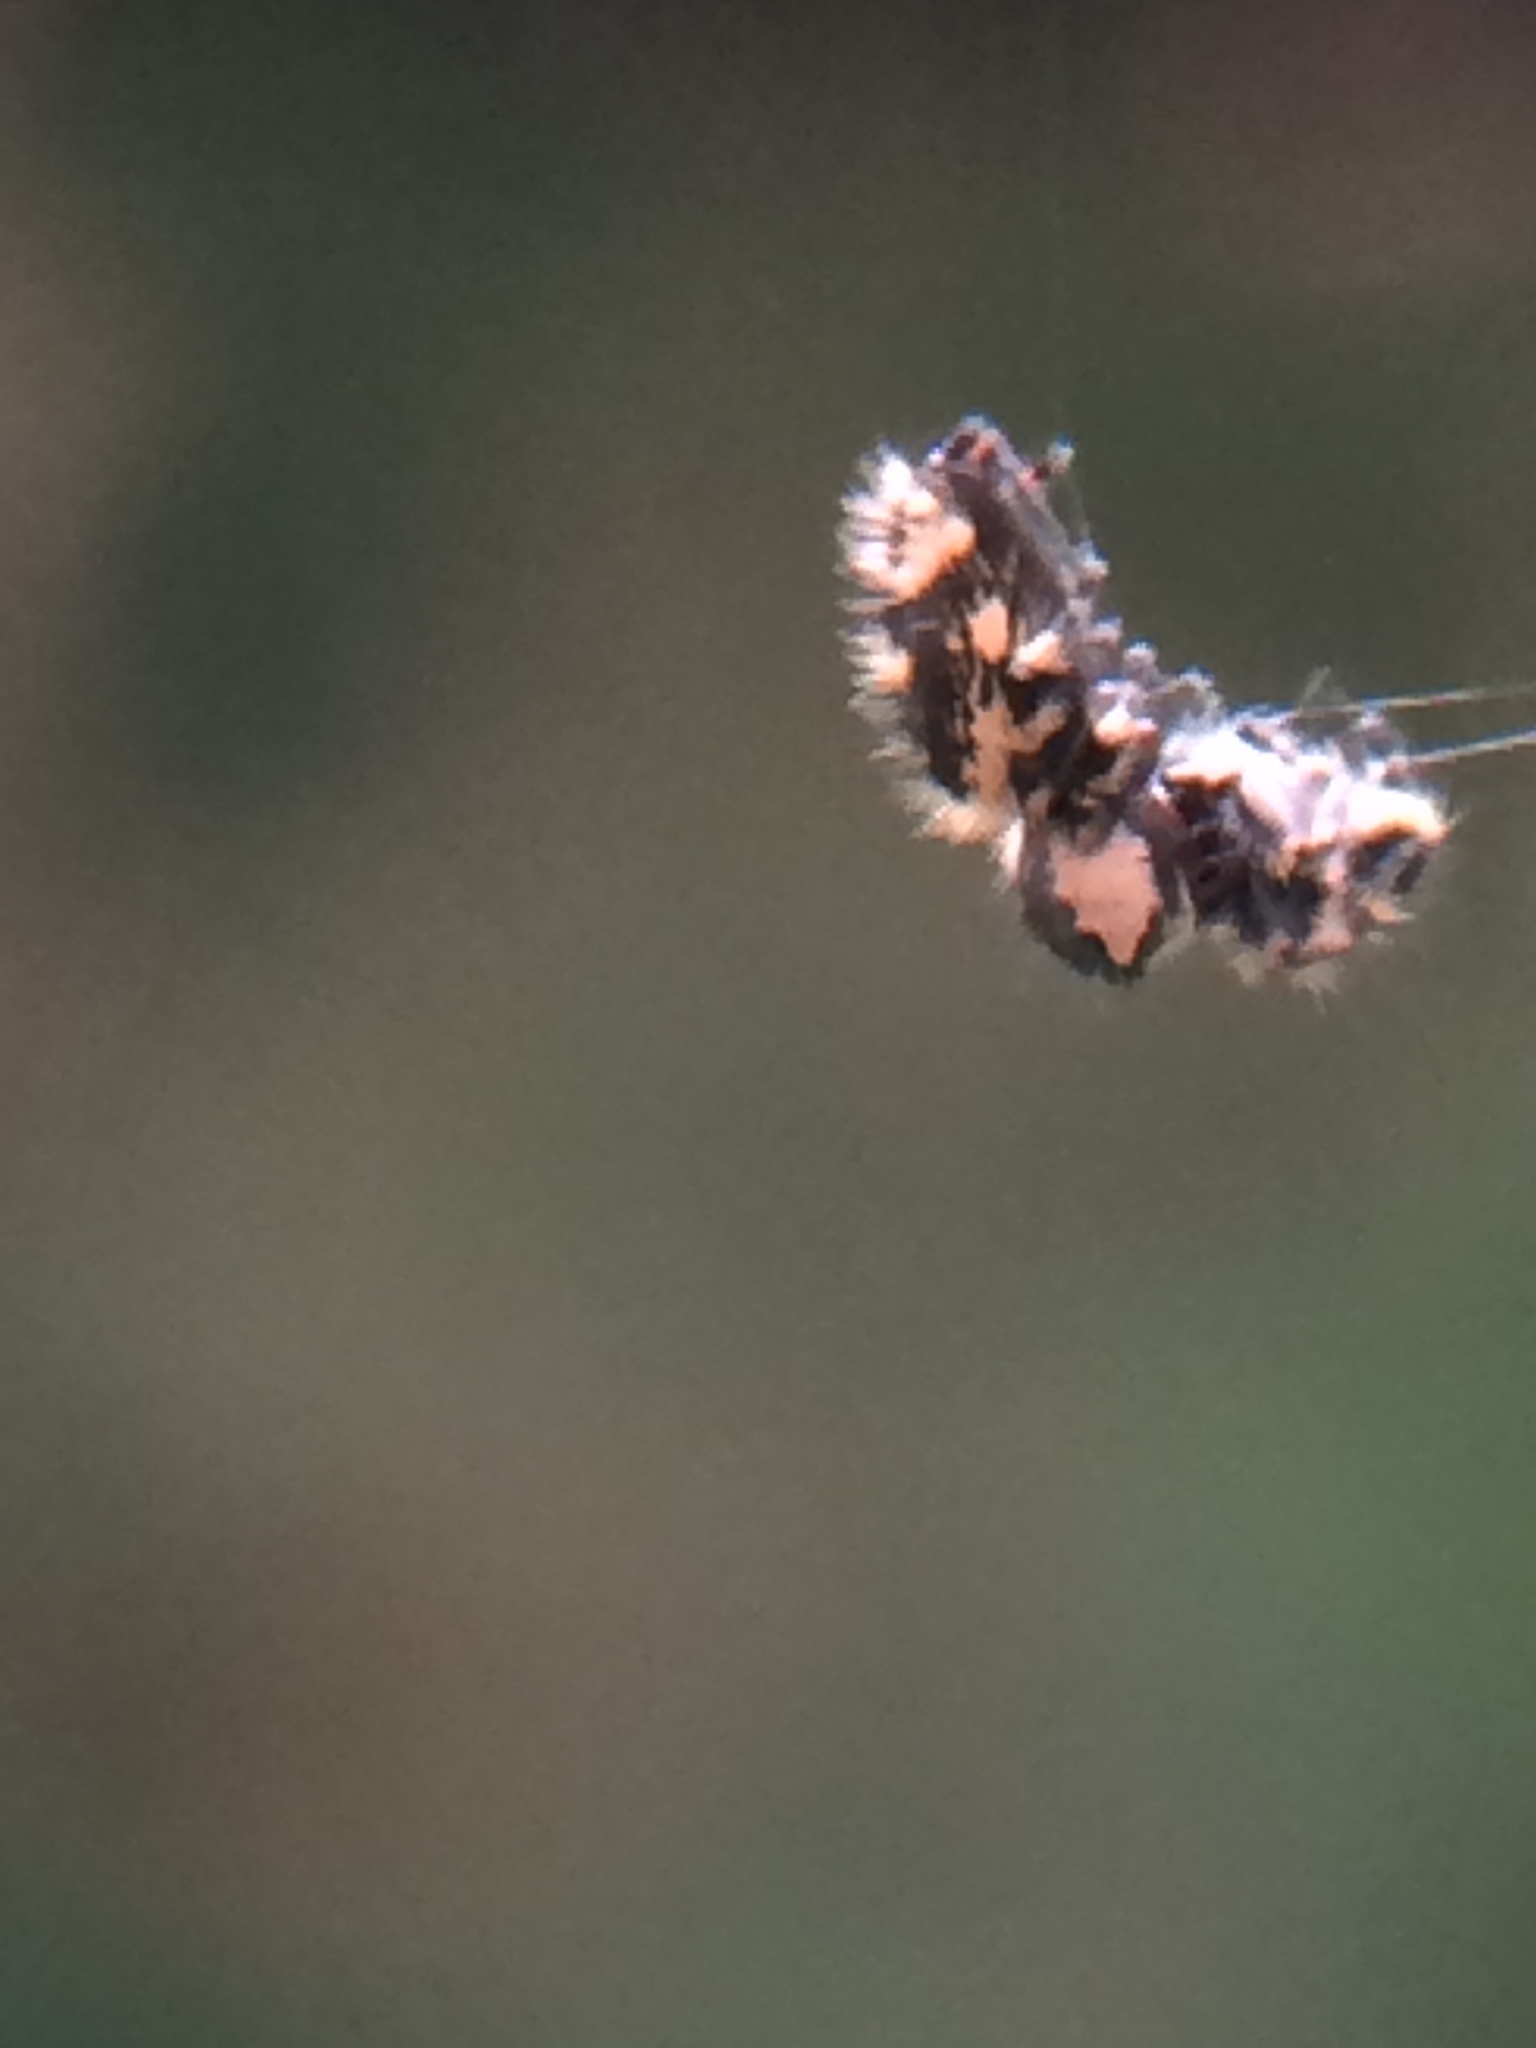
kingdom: Animalia
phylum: Arthropoda
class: Arachnida
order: Araneae
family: Salticidae
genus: Phidippus
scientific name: Phidippus otiosus
